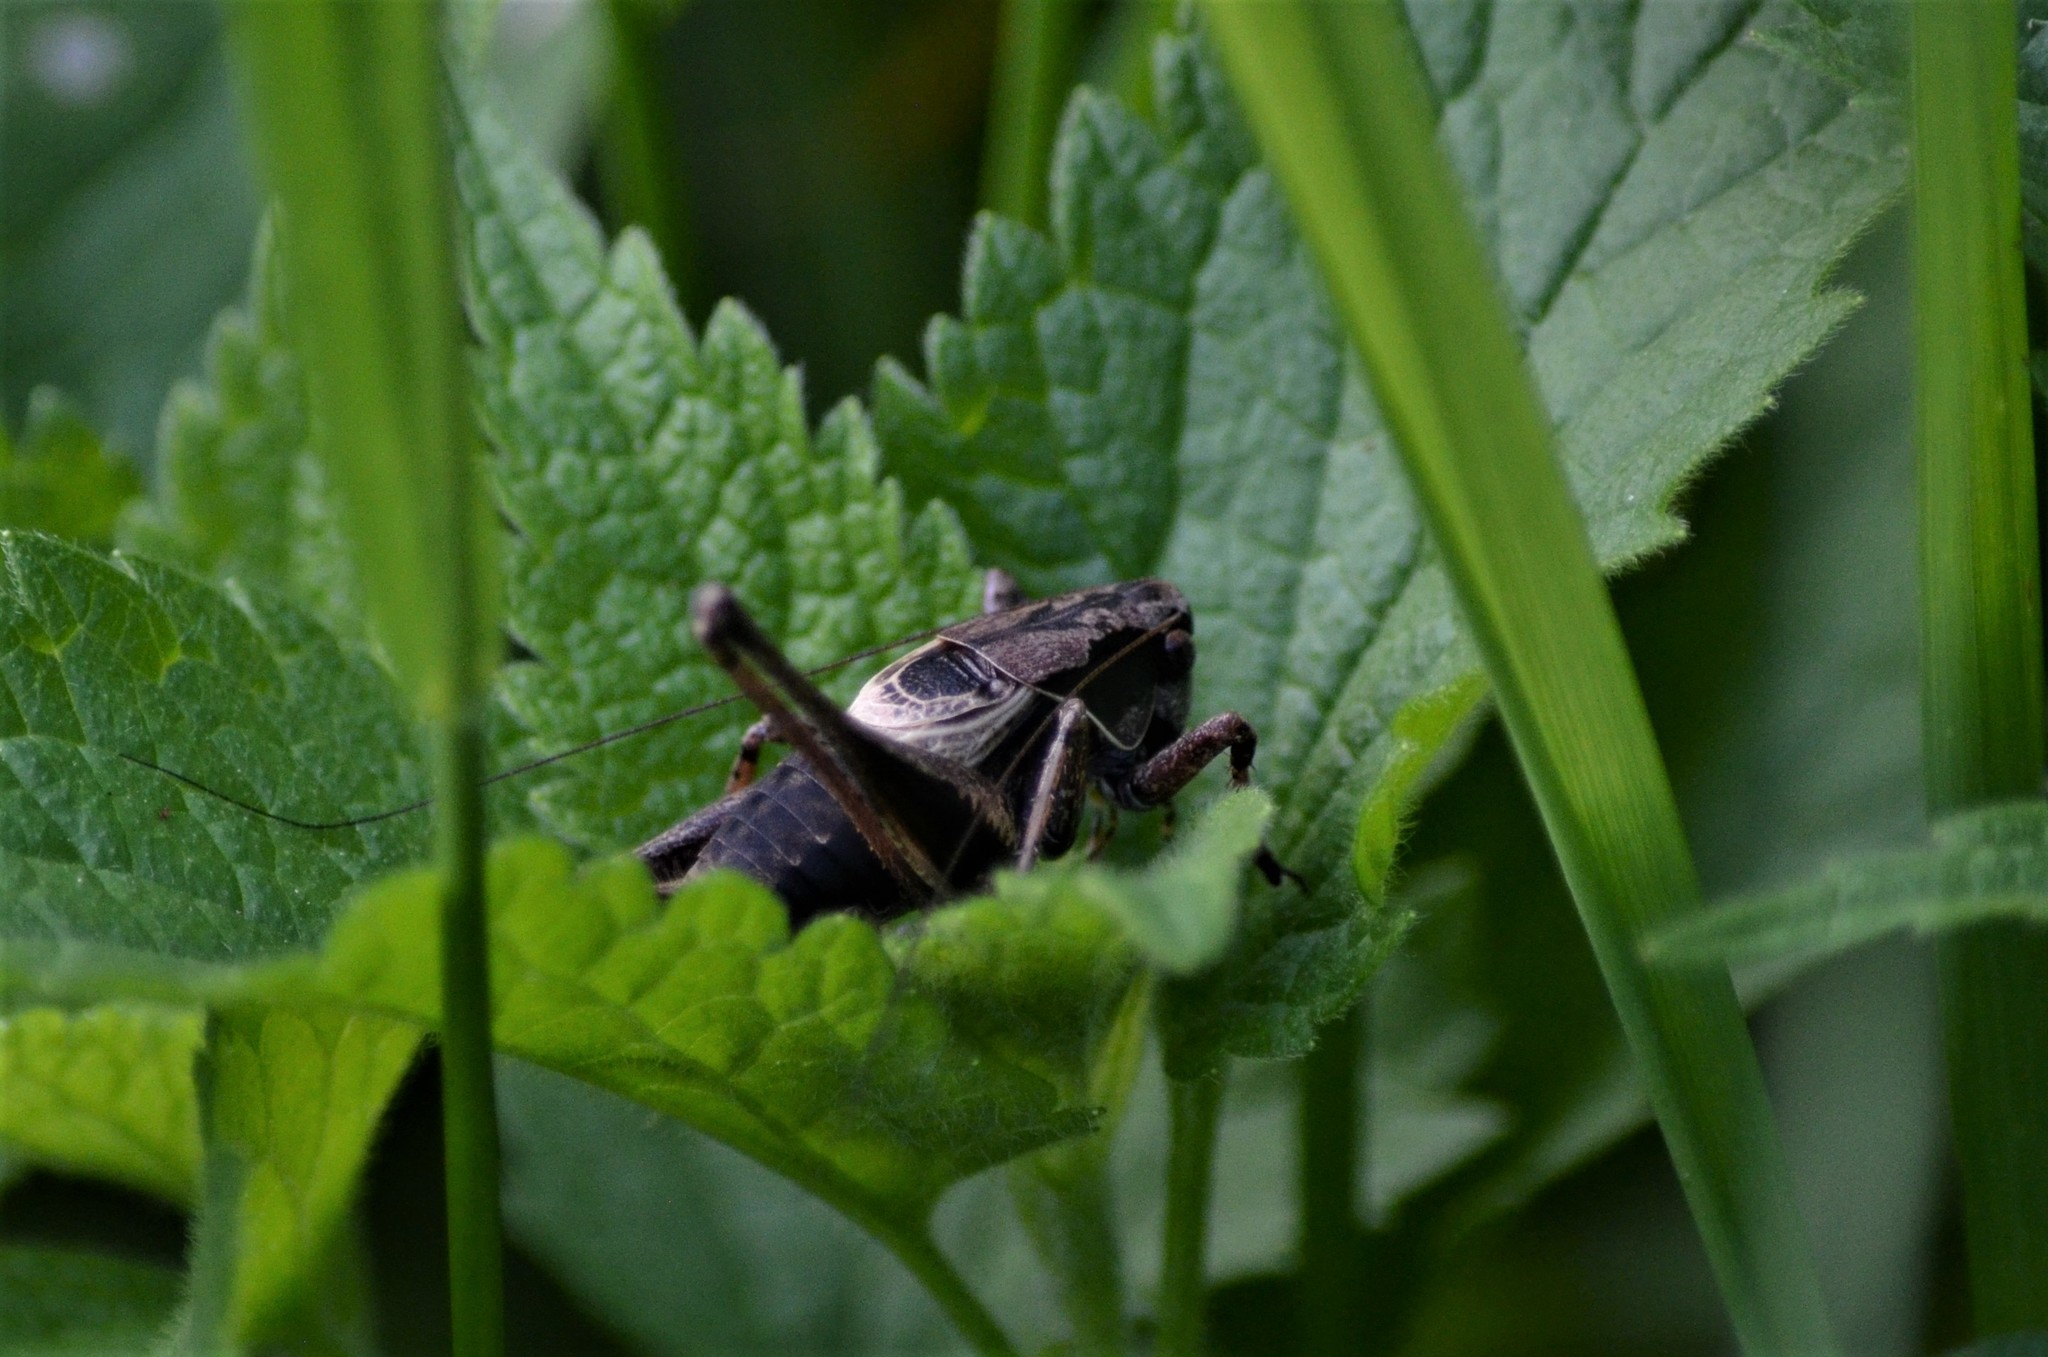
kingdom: Animalia
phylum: Arthropoda
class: Insecta
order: Orthoptera
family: Tettigoniidae
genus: Pholidoptera
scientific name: Pholidoptera griseoaptera
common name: Dark bush-cricket
